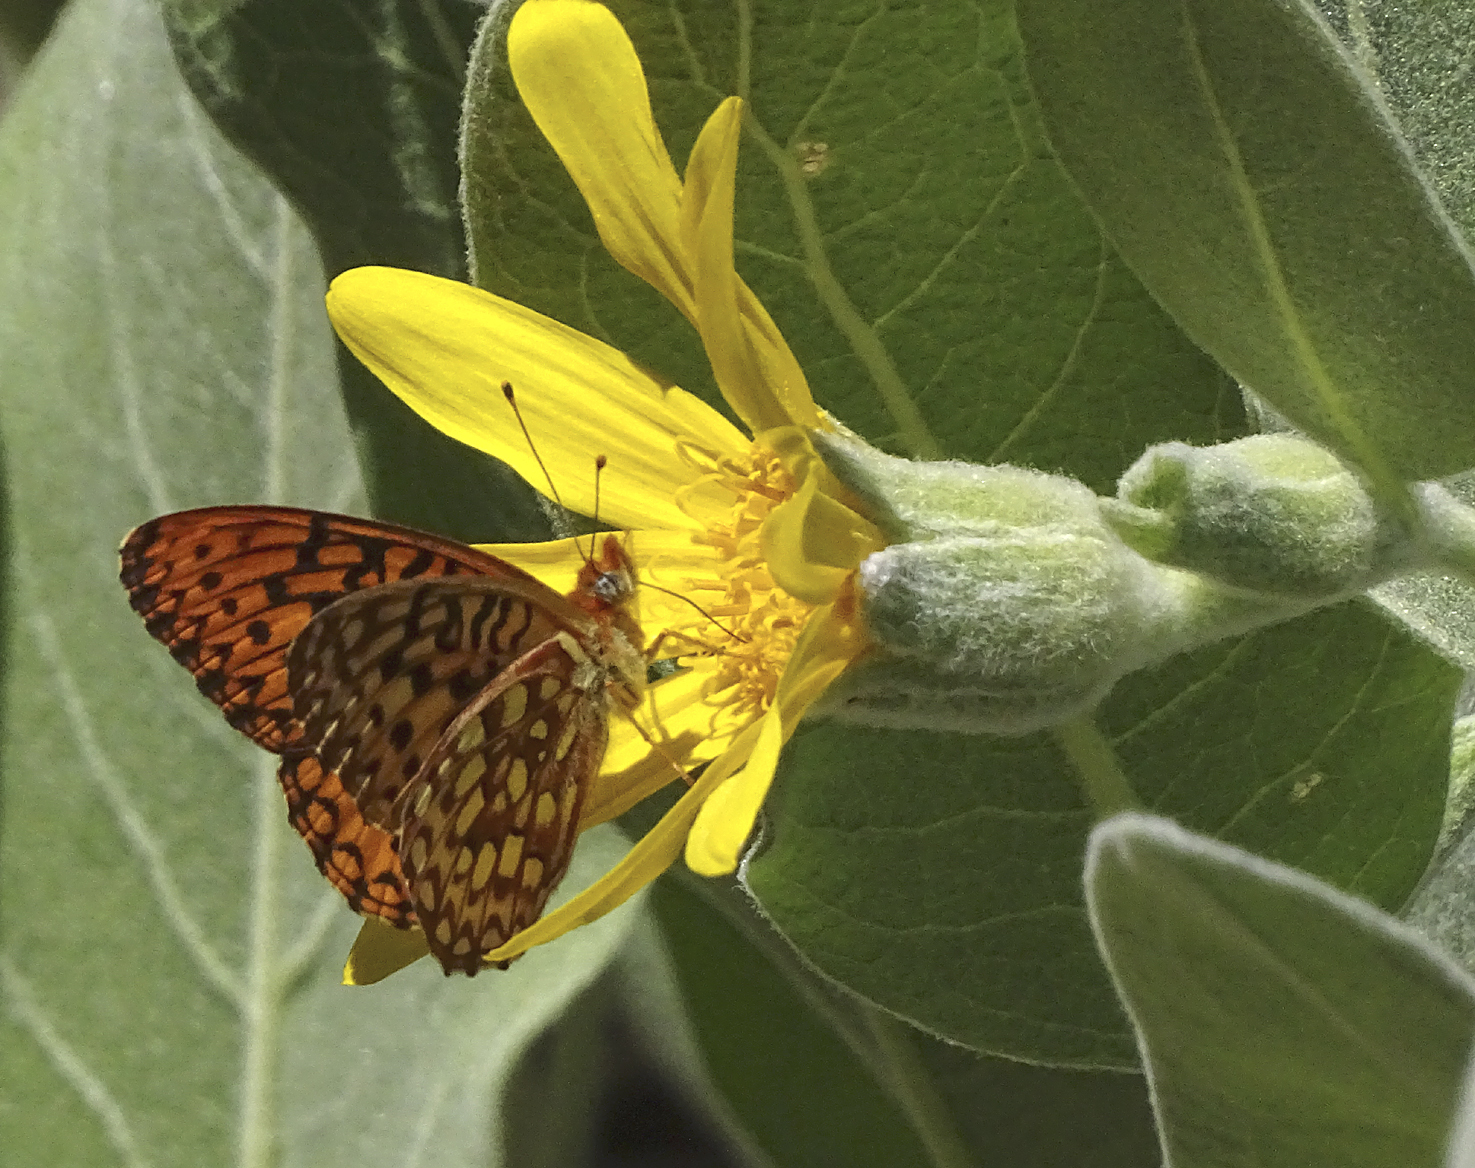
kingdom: Animalia
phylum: Arthropoda
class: Insecta
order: Lepidoptera
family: Nymphalidae
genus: Speyeria
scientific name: Speyeria atlantis
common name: Atlantis fritillary
